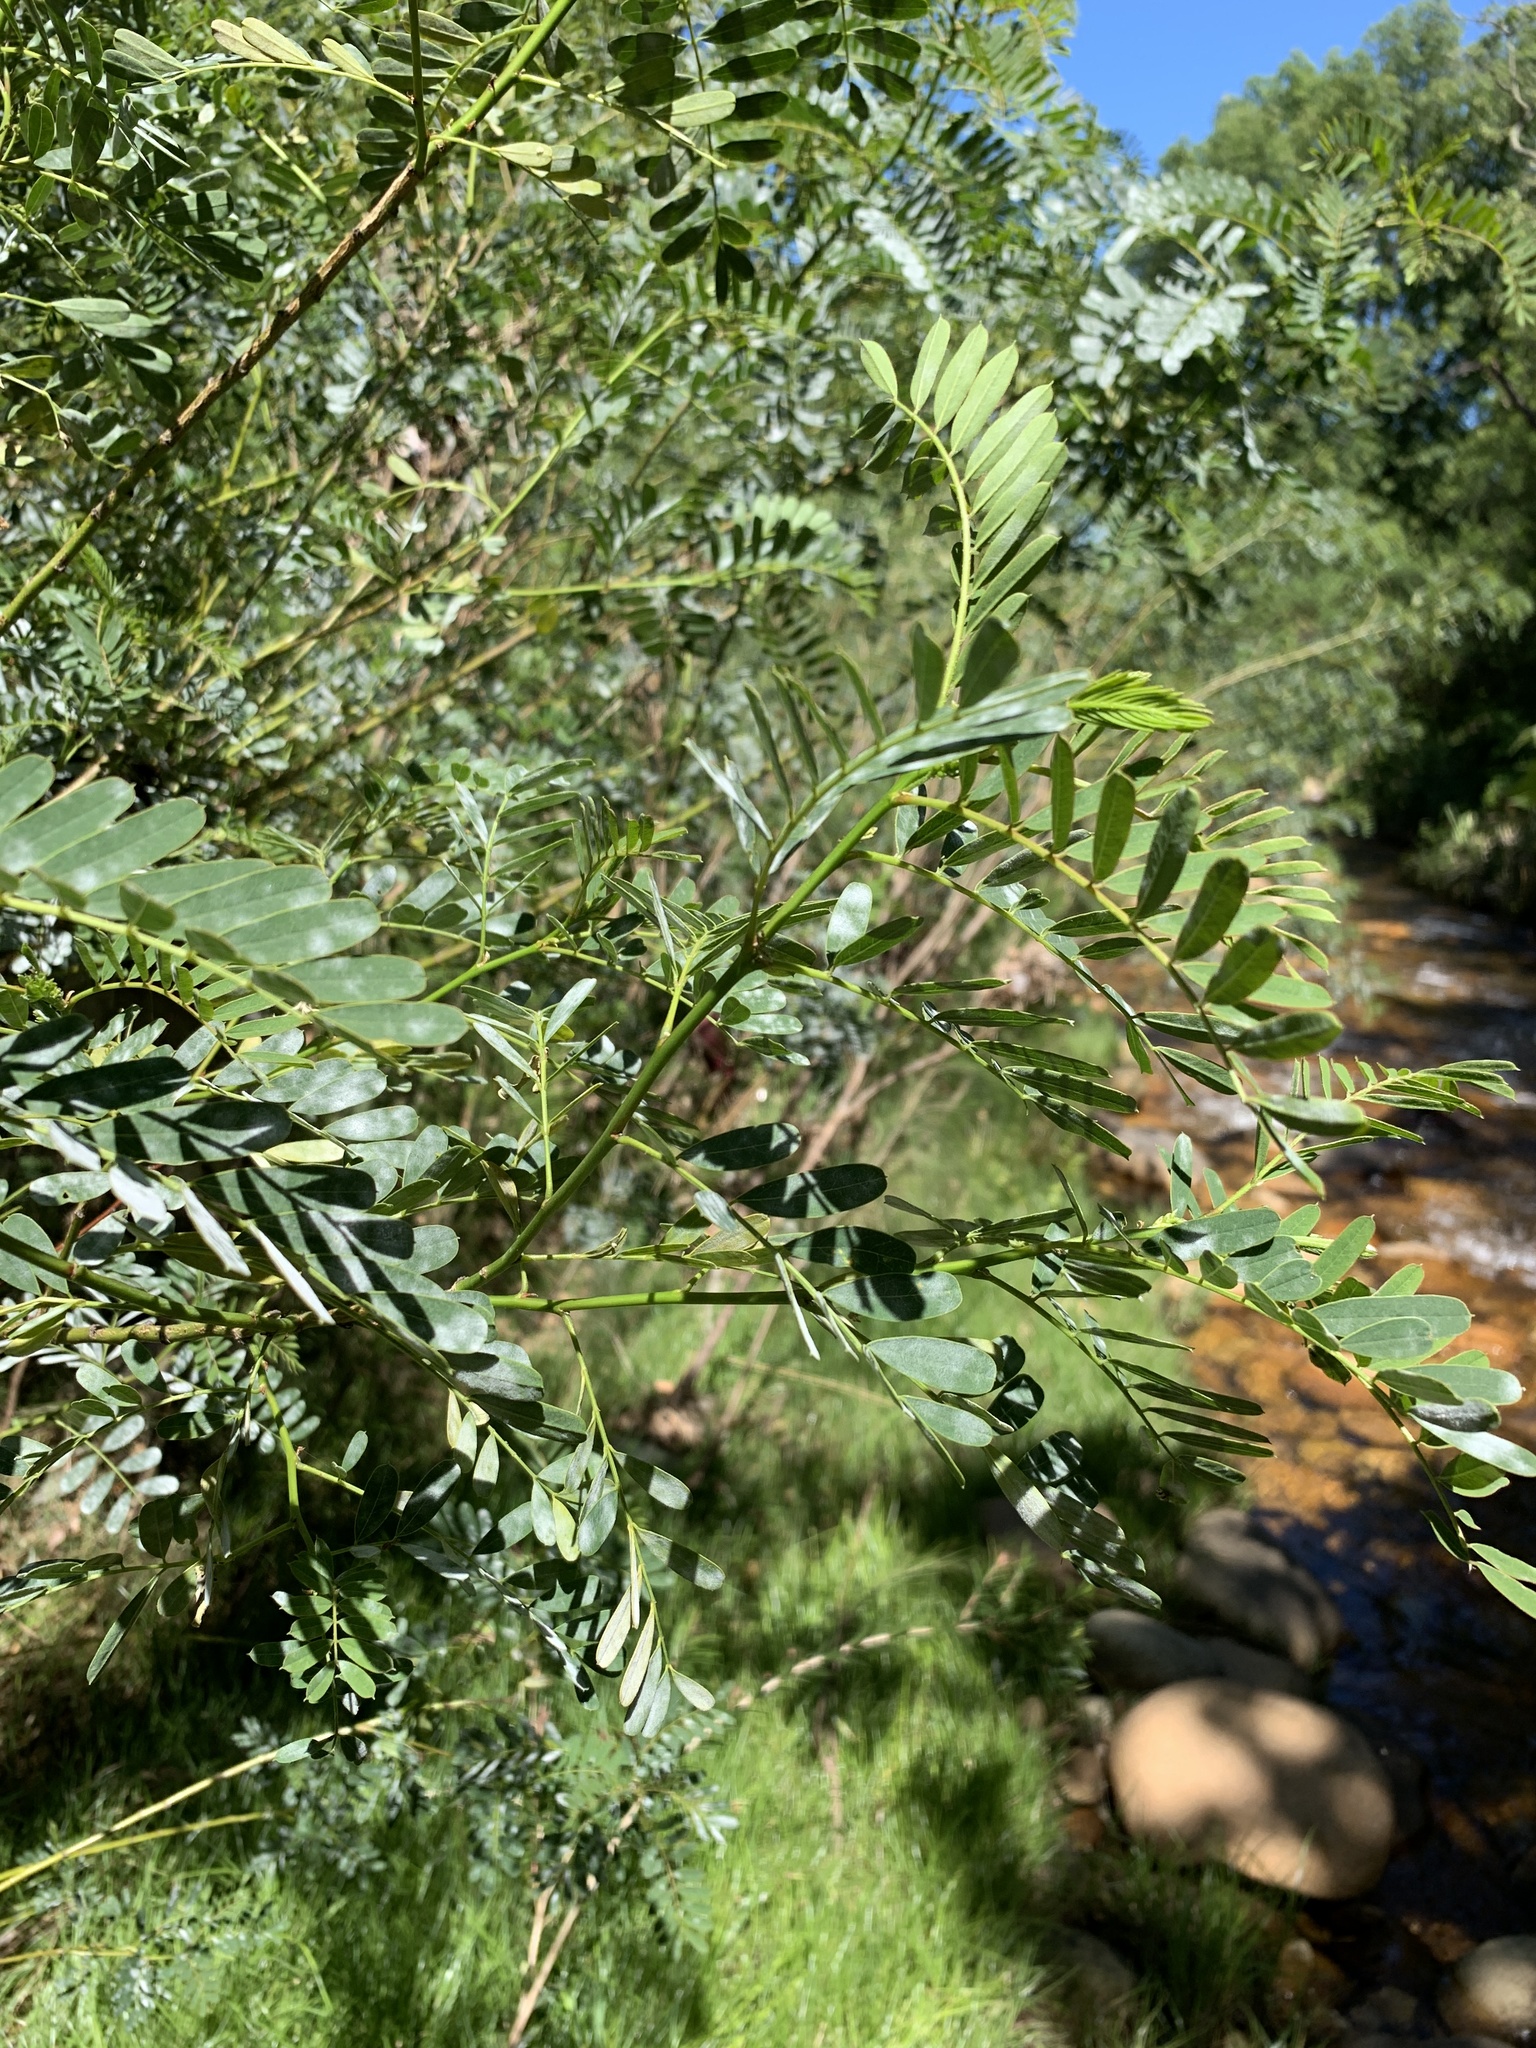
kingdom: Plantae
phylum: Tracheophyta
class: Magnoliopsida
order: Fabales
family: Fabaceae
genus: Sesbania
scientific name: Sesbania punicea
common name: Rattlebox
